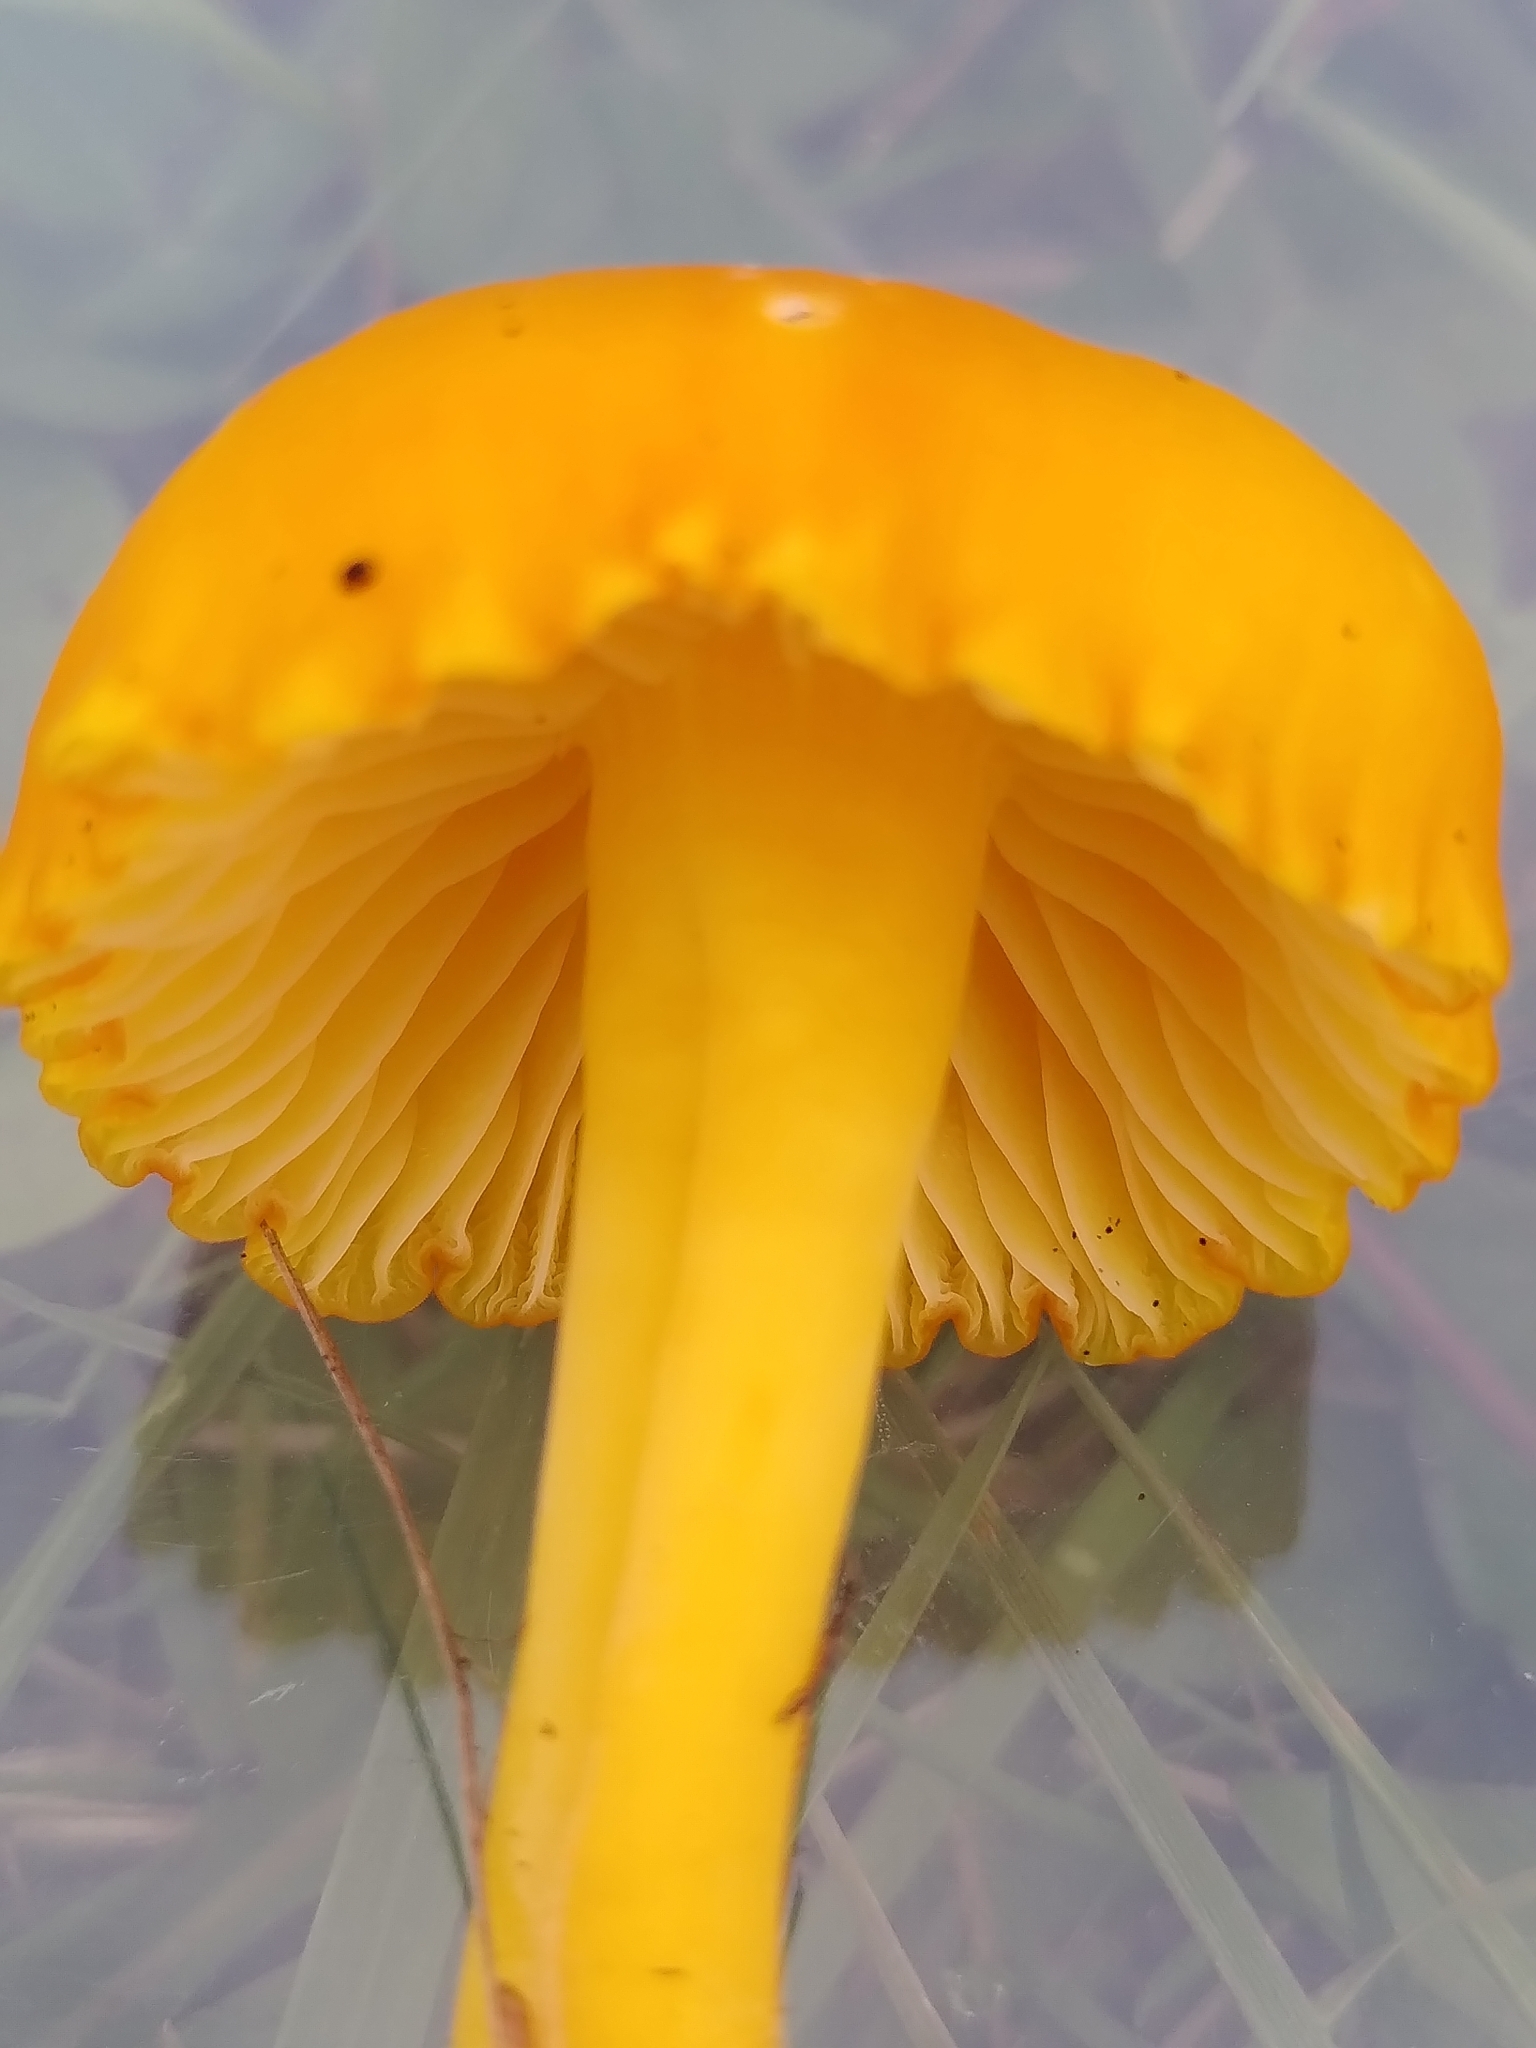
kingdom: Fungi
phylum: Basidiomycota
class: Agaricomycetes
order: Agaricales
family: Hygrophoraceae
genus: Hygrocybe
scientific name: Hygrocybe ceracea
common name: Butter waxcap
